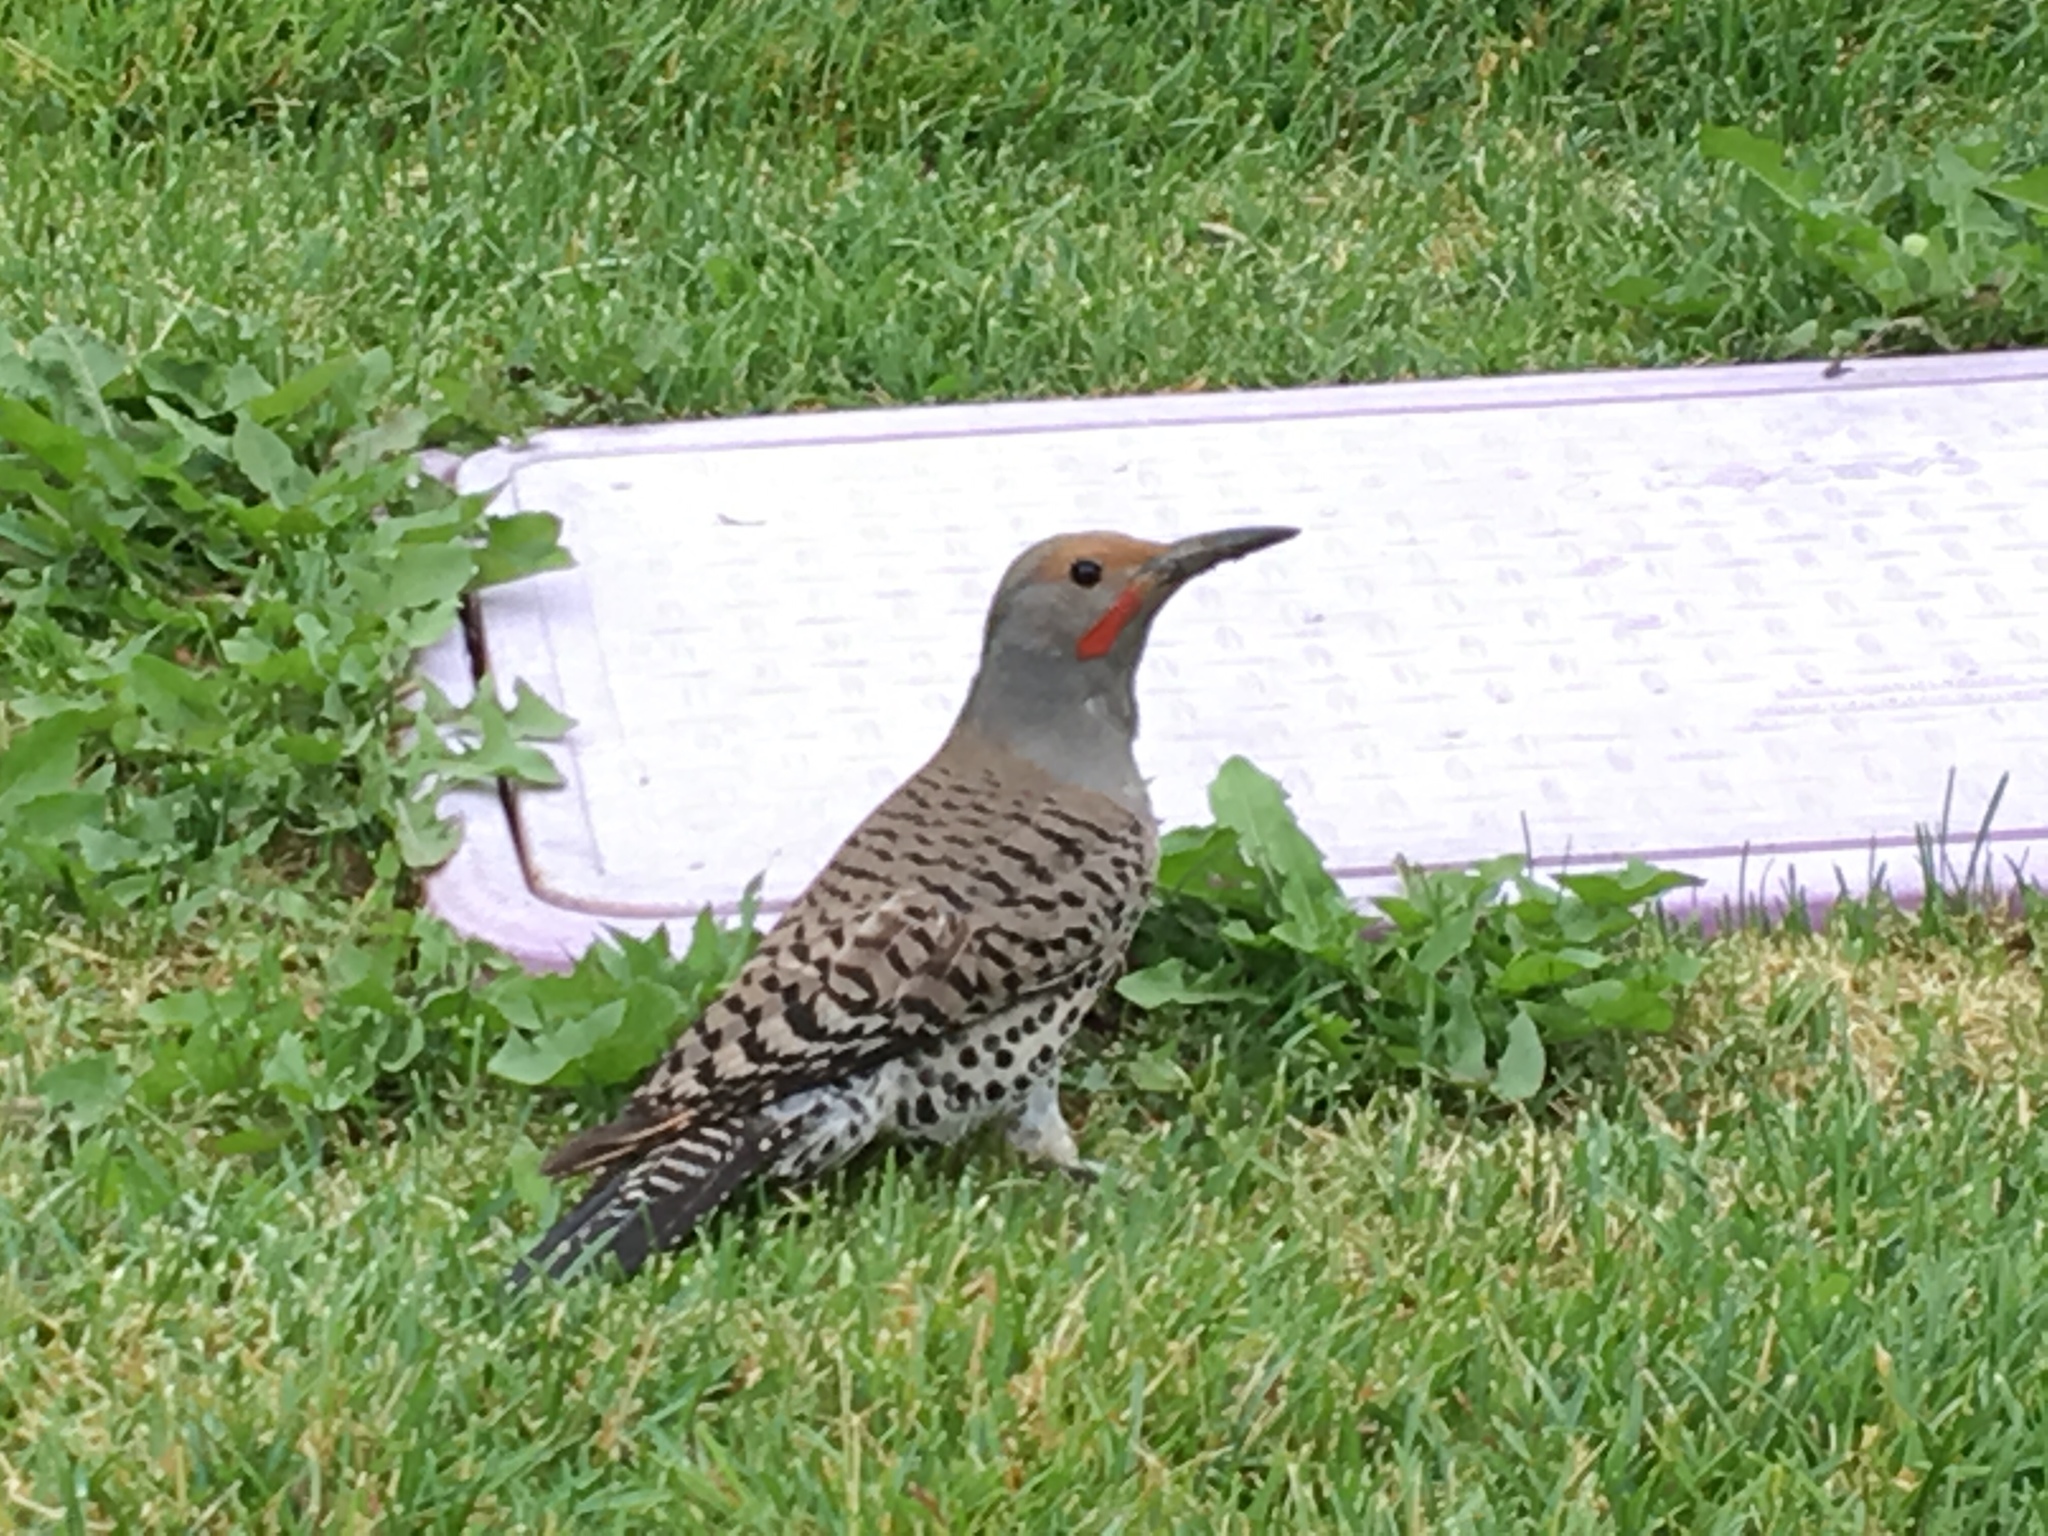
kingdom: Animalia
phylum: Chordata
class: Aves
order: Piciformes
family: Picidae
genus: Colaptes
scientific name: Colaptes auratus
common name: Northern flicker
